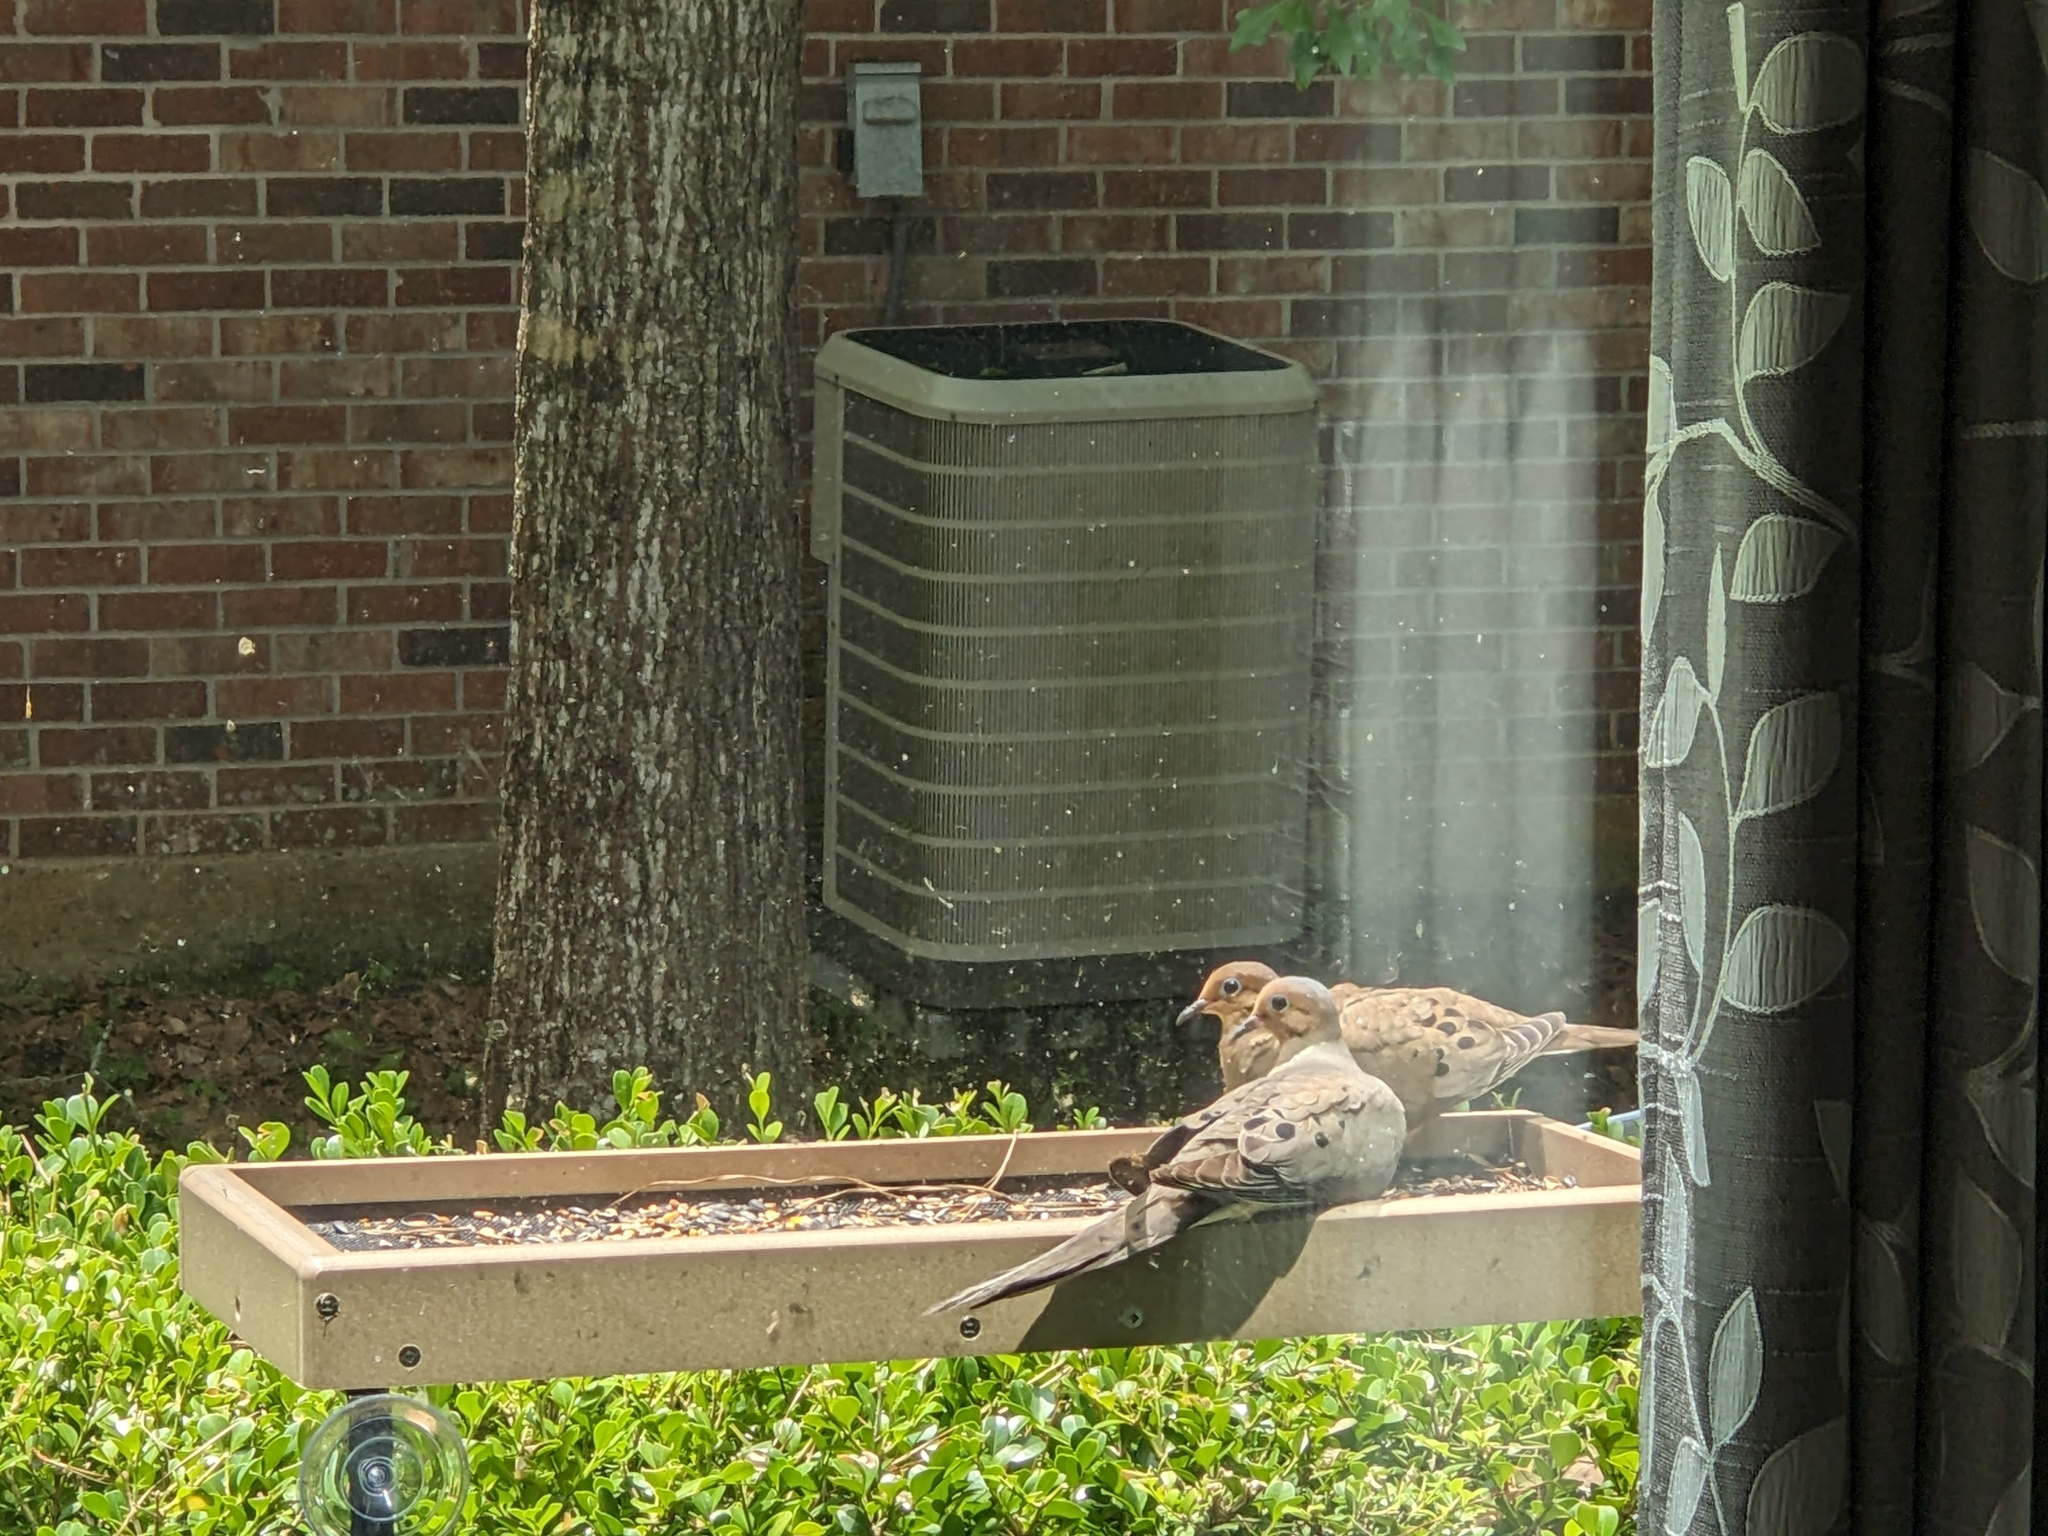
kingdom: Animalia
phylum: Chordata
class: Aves
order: Columbiformes
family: Columbidae
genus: Zenaida
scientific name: Zenaida macroura
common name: Mourning dove
